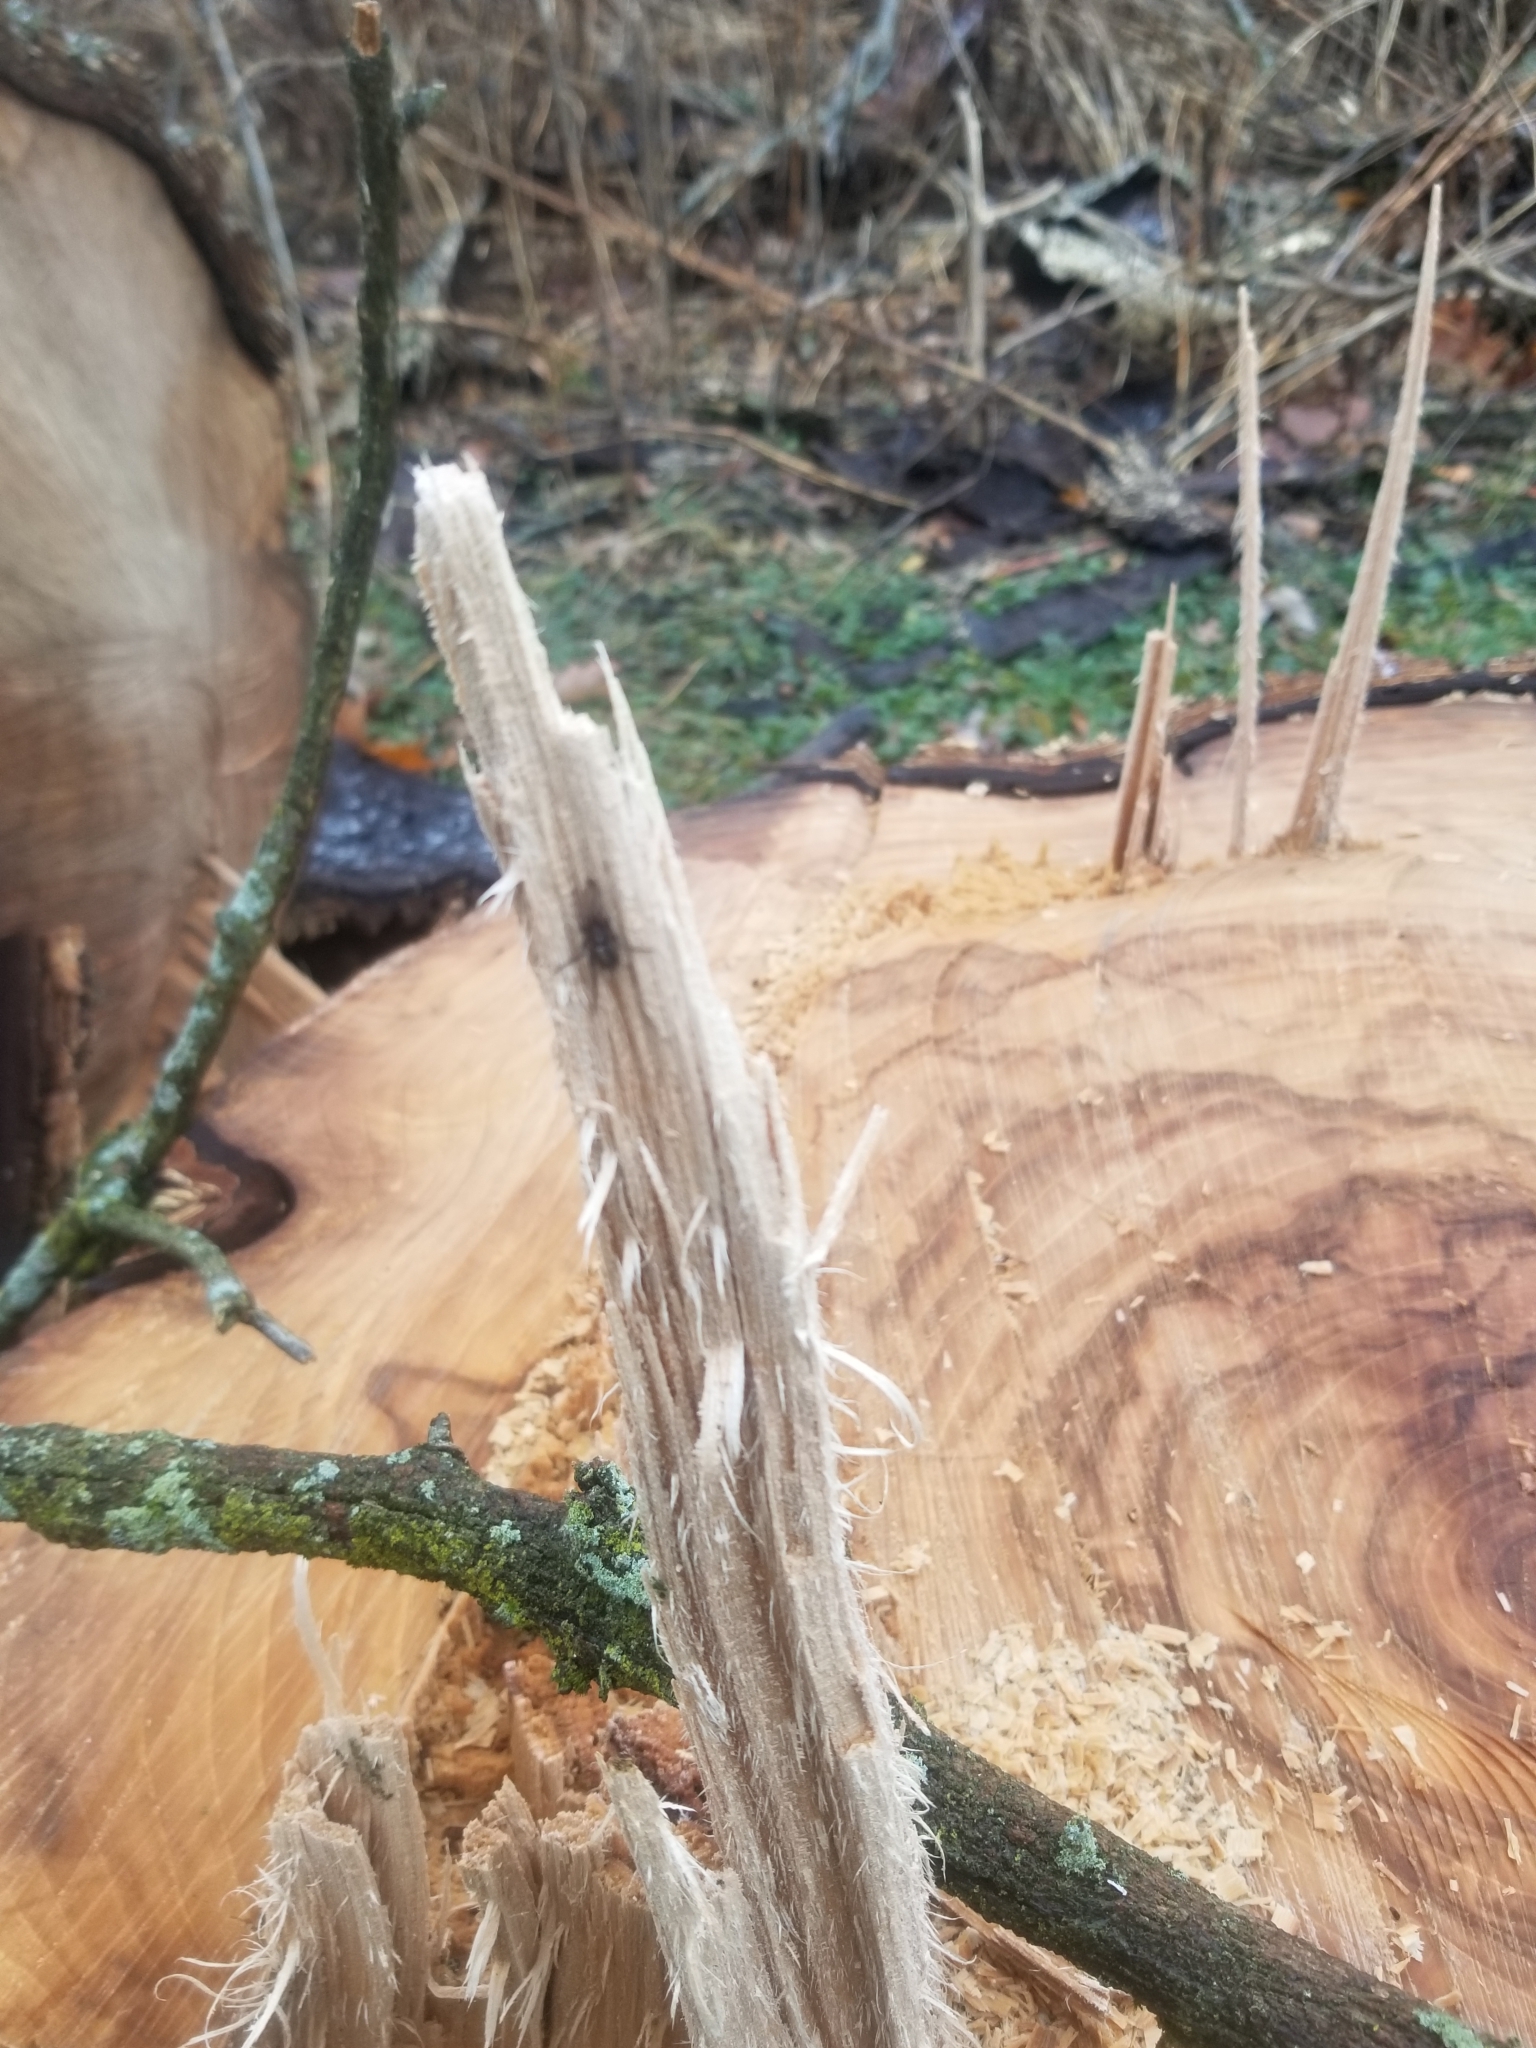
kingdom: Animalia
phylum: Arthropoda
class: Arachnida
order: Araneae
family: Gnaphosidae
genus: Herpyllus
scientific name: Herpyllus ecclesiasticus
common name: Eastern parson spider
